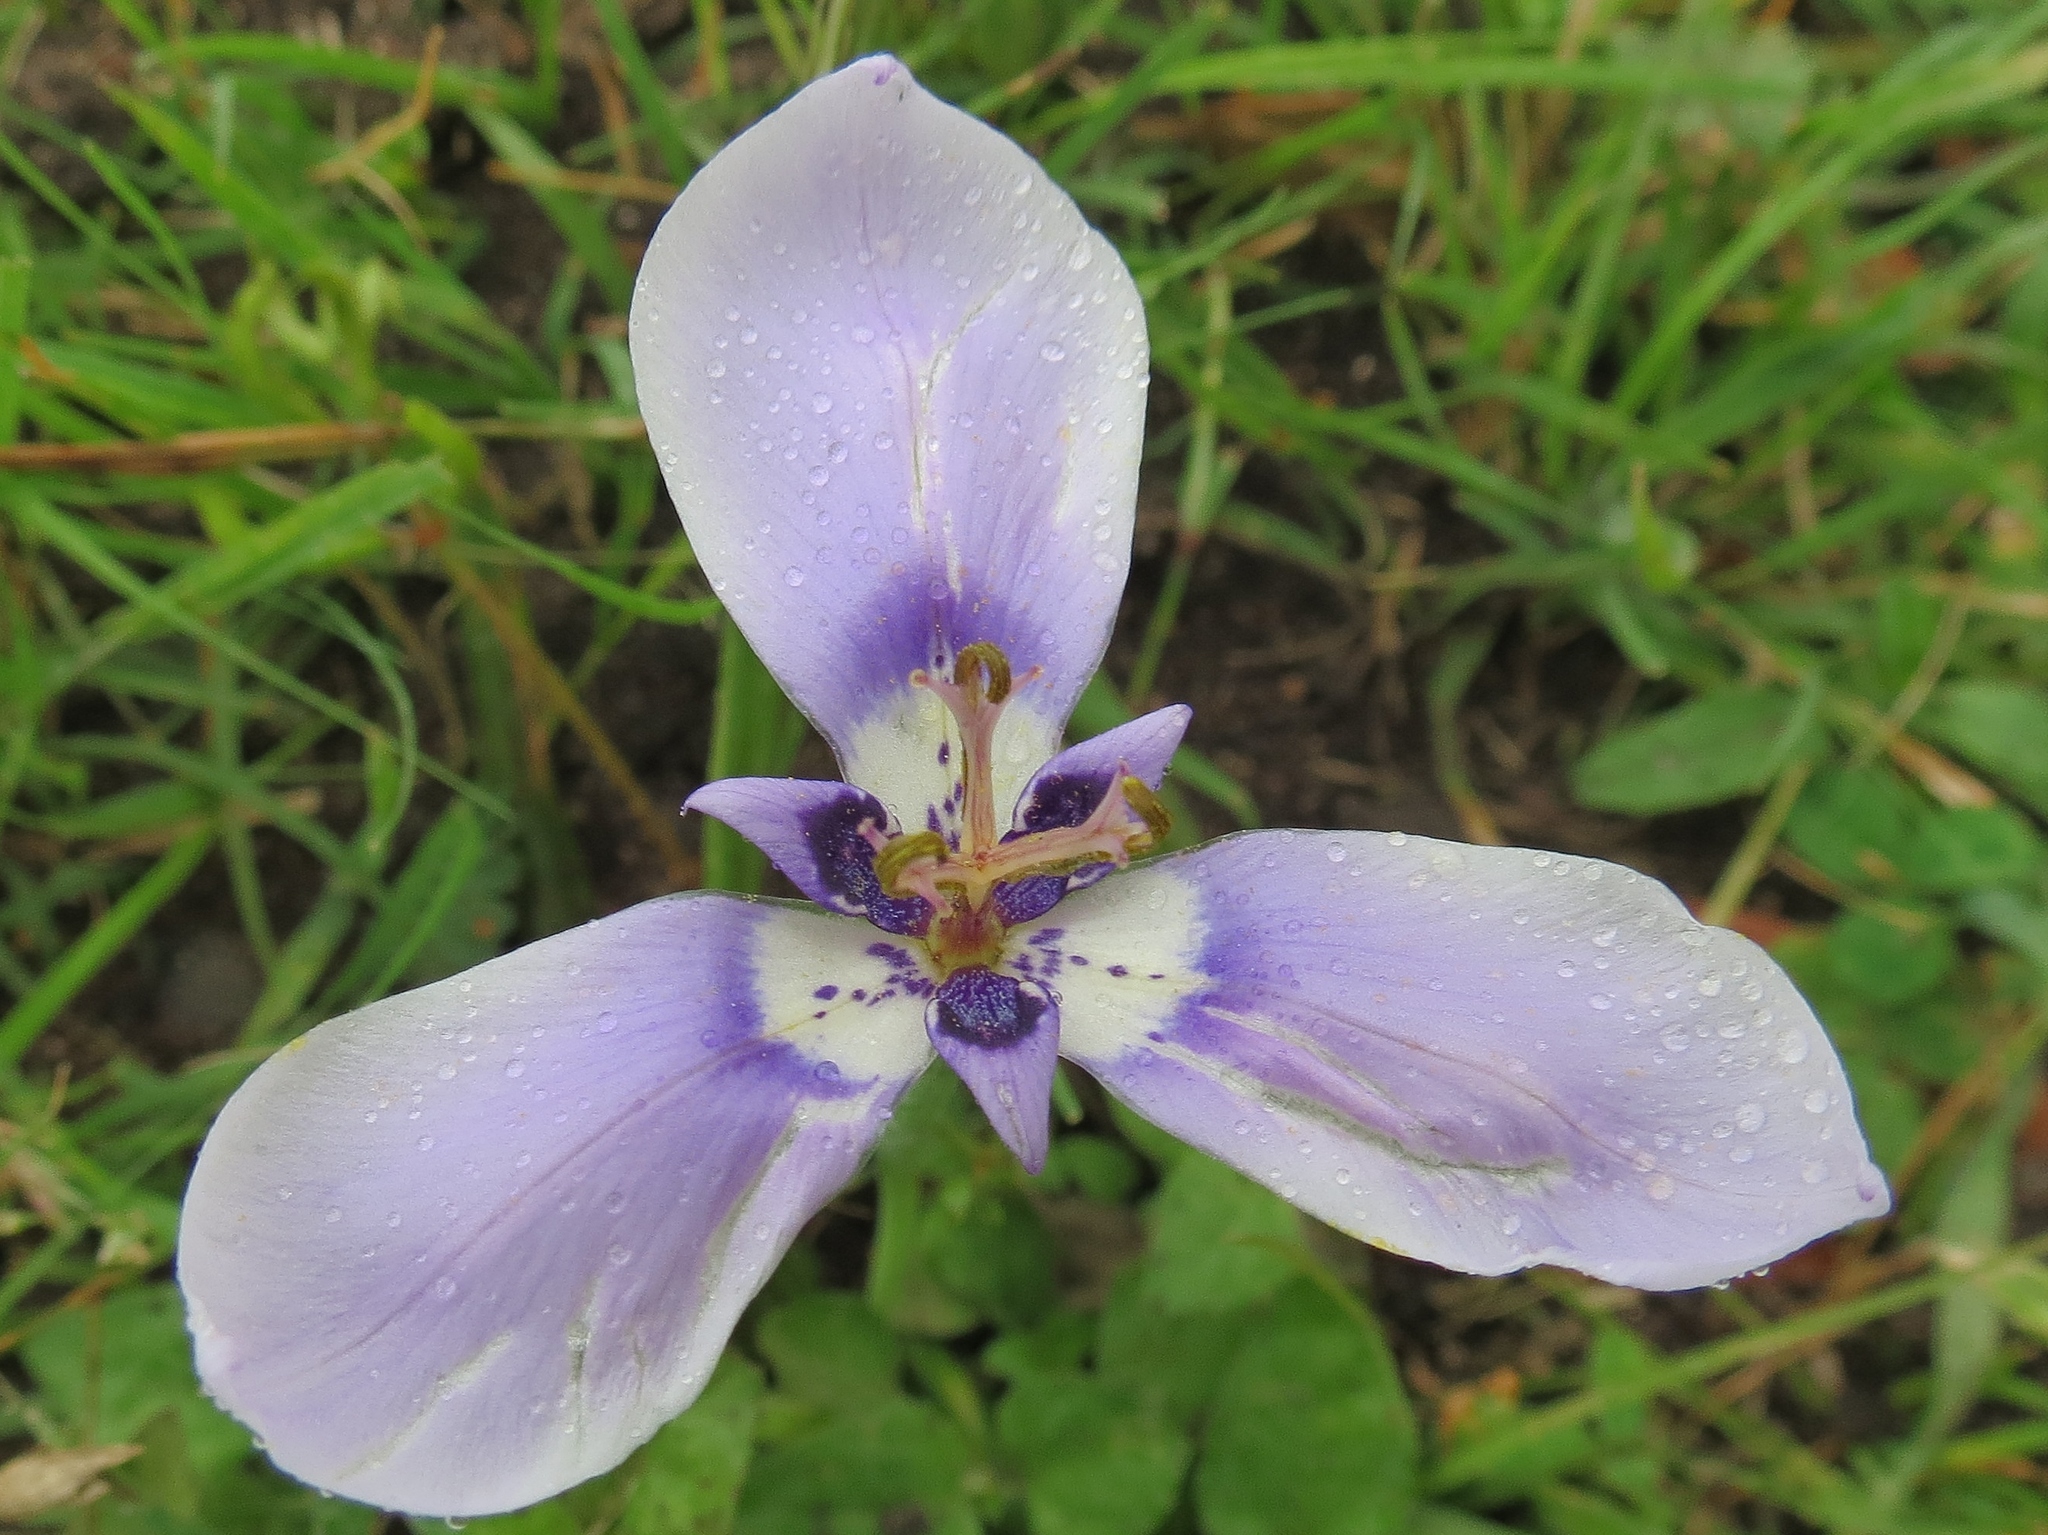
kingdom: Plantae
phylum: Tracheophyta
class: Liliopsida
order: Asparagales
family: Iridaceae
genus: Herbertia
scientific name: Herbertia lahue
